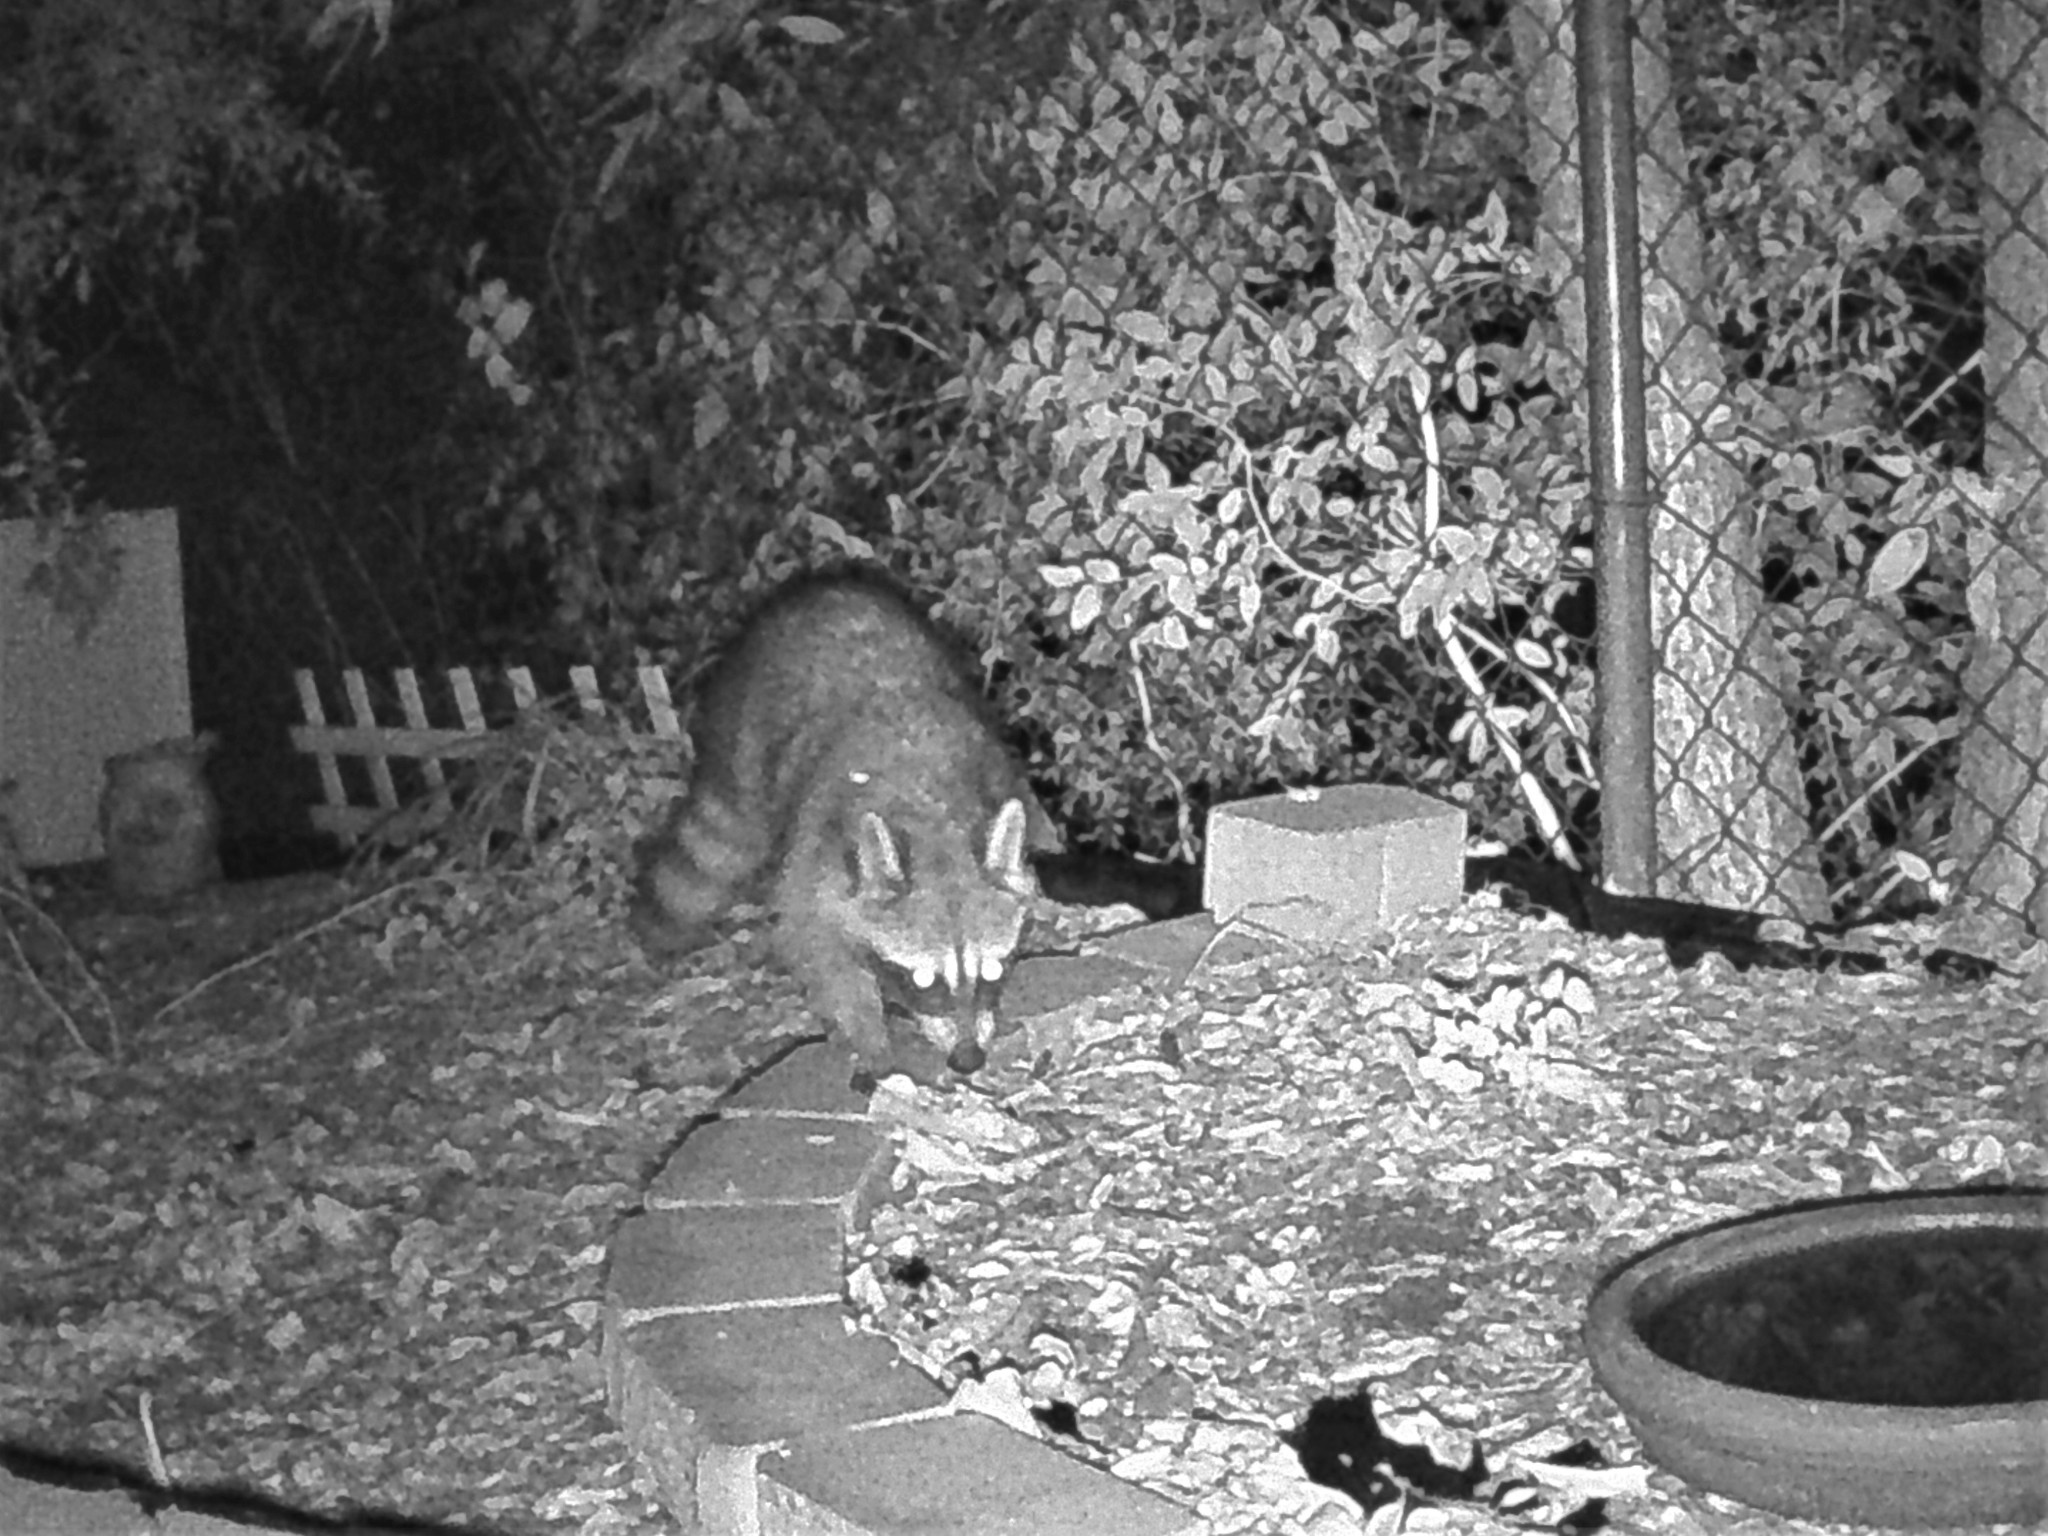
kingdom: Animalia
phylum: Chordata
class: Mammalia
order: Carnivora
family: Procyonidae
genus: Procyon
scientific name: Procyon lotor
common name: Raccoon
